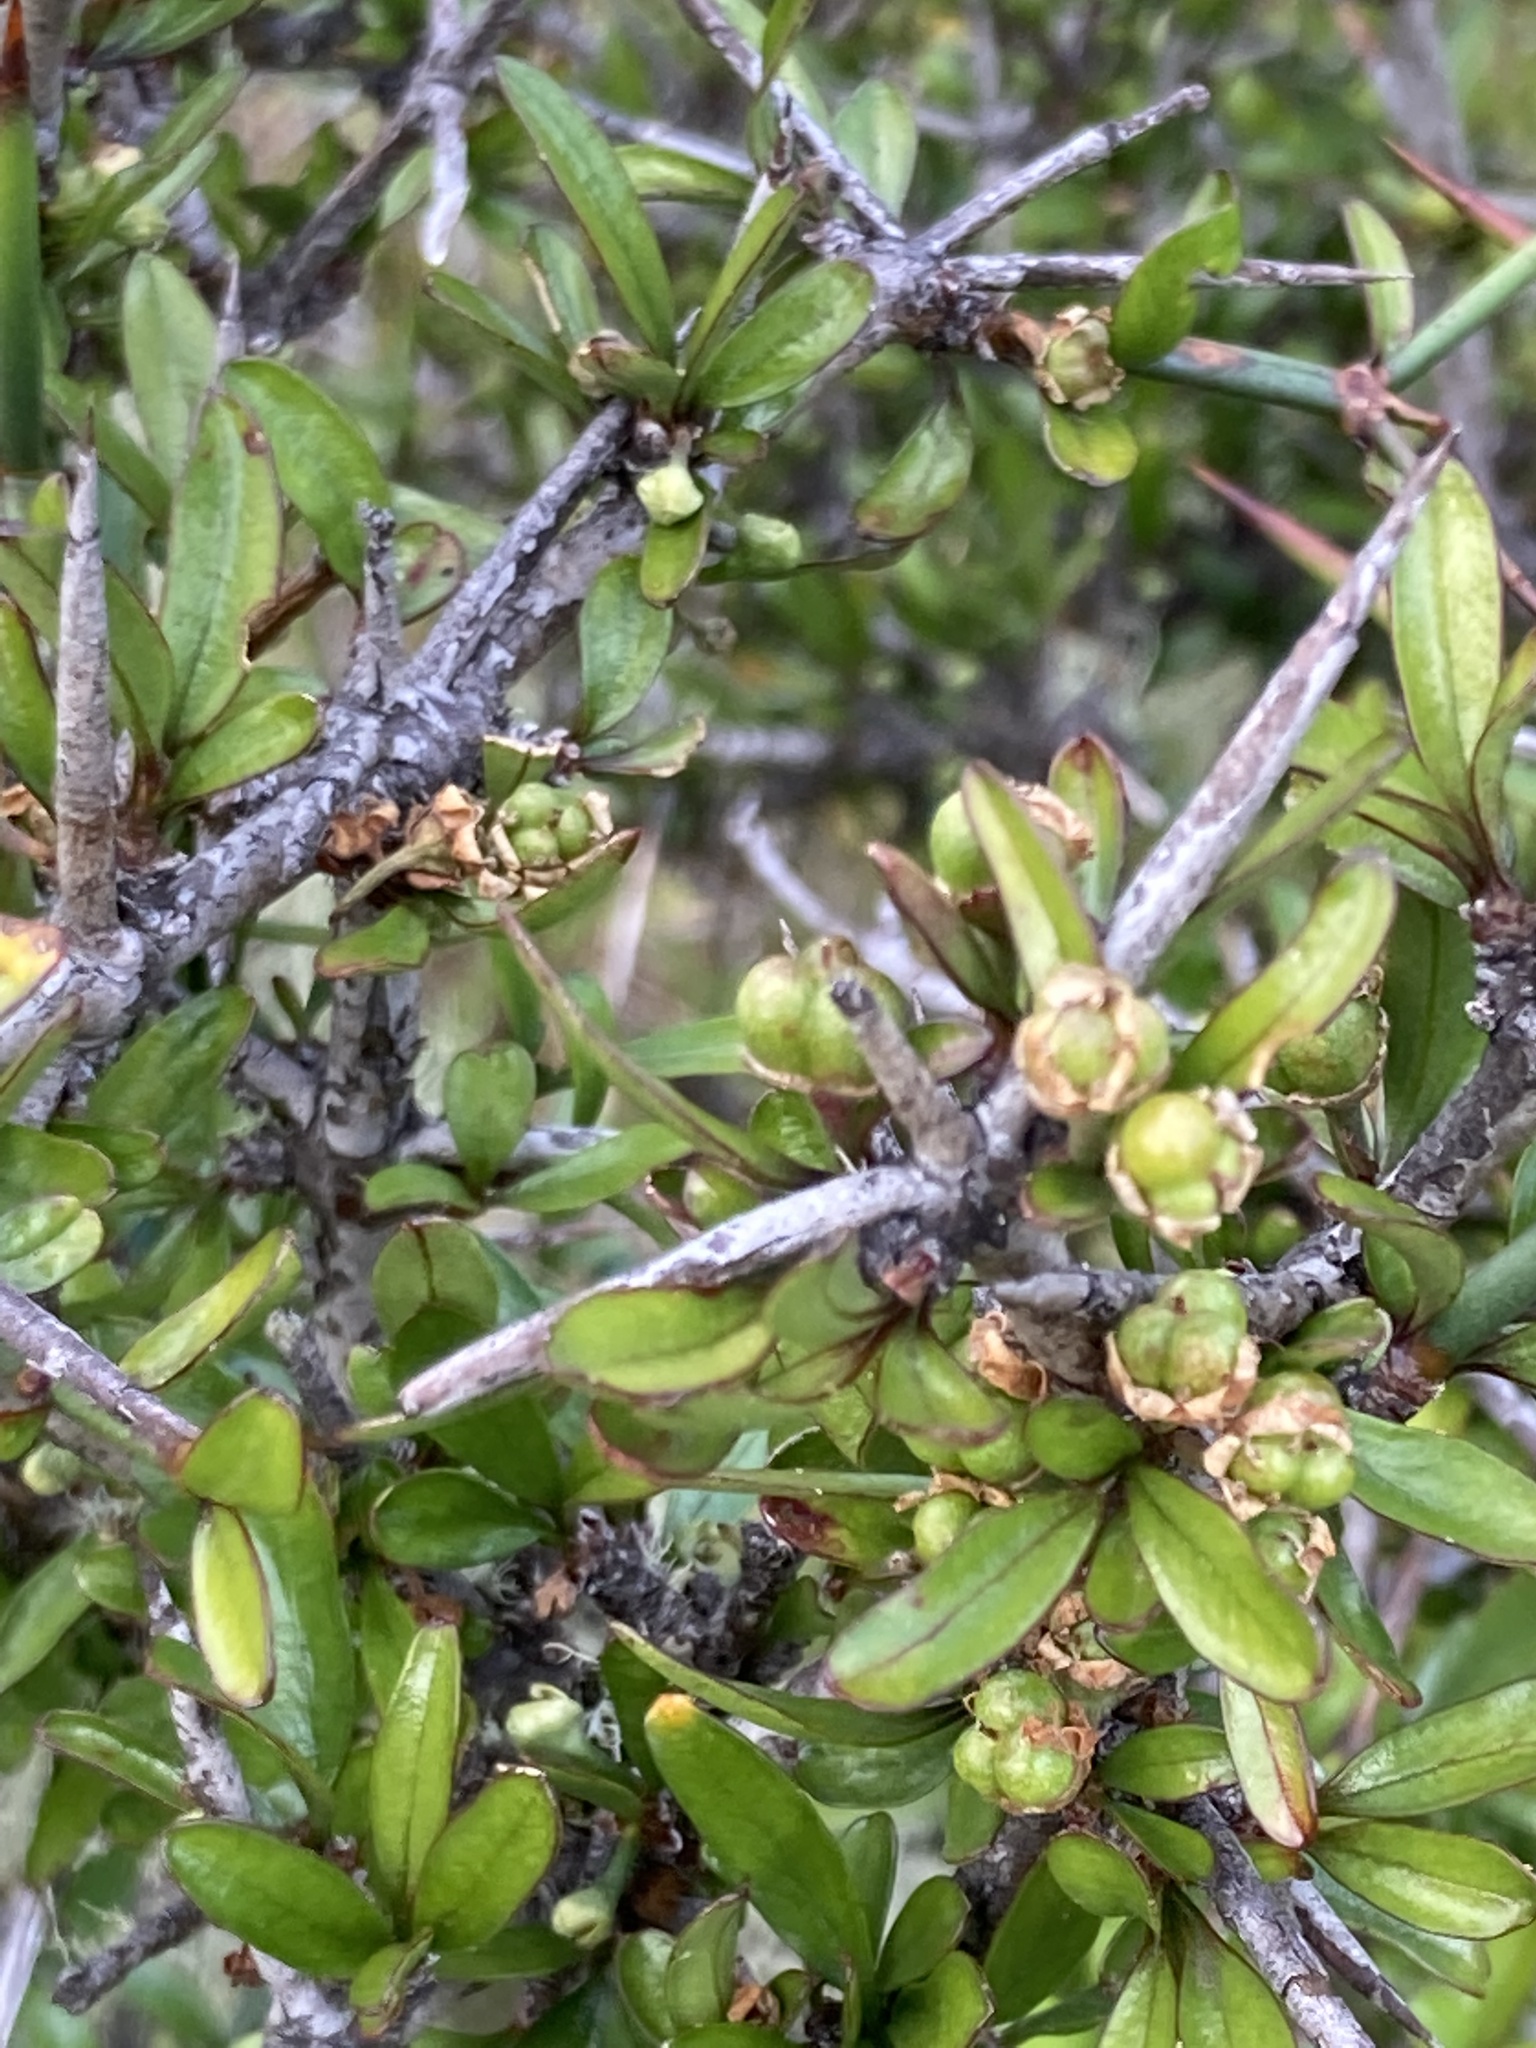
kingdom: Plantae
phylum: Tracheophyta
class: Magnoliopsida
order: Rosales
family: Rhamnaceae
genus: Discaria
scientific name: Discaria toumatou
